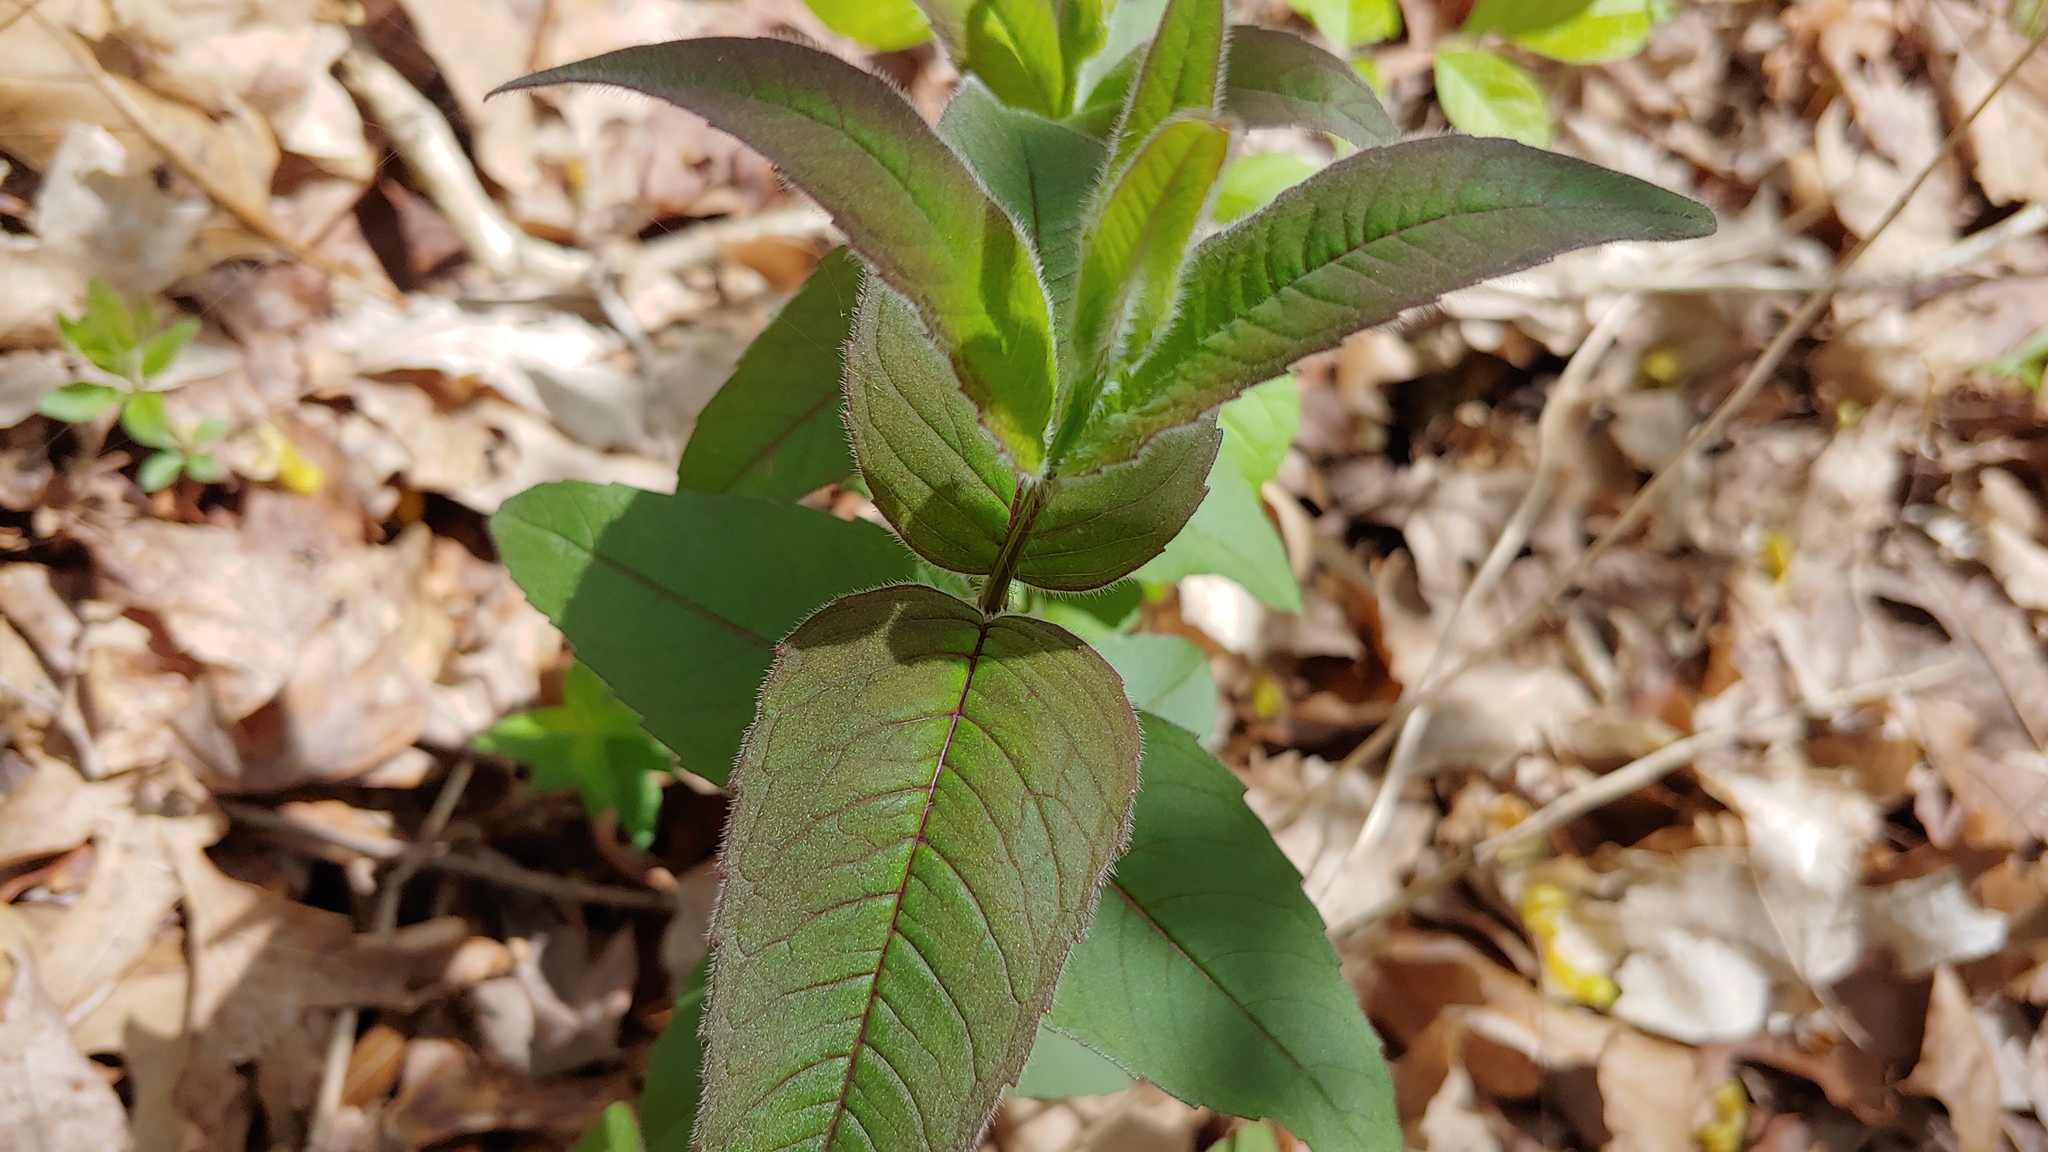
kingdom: Plantae
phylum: Tracheophyta
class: Magnoliopsida
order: Lamiales
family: Lamiaceae
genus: Monarda
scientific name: Monarda bradburiana
